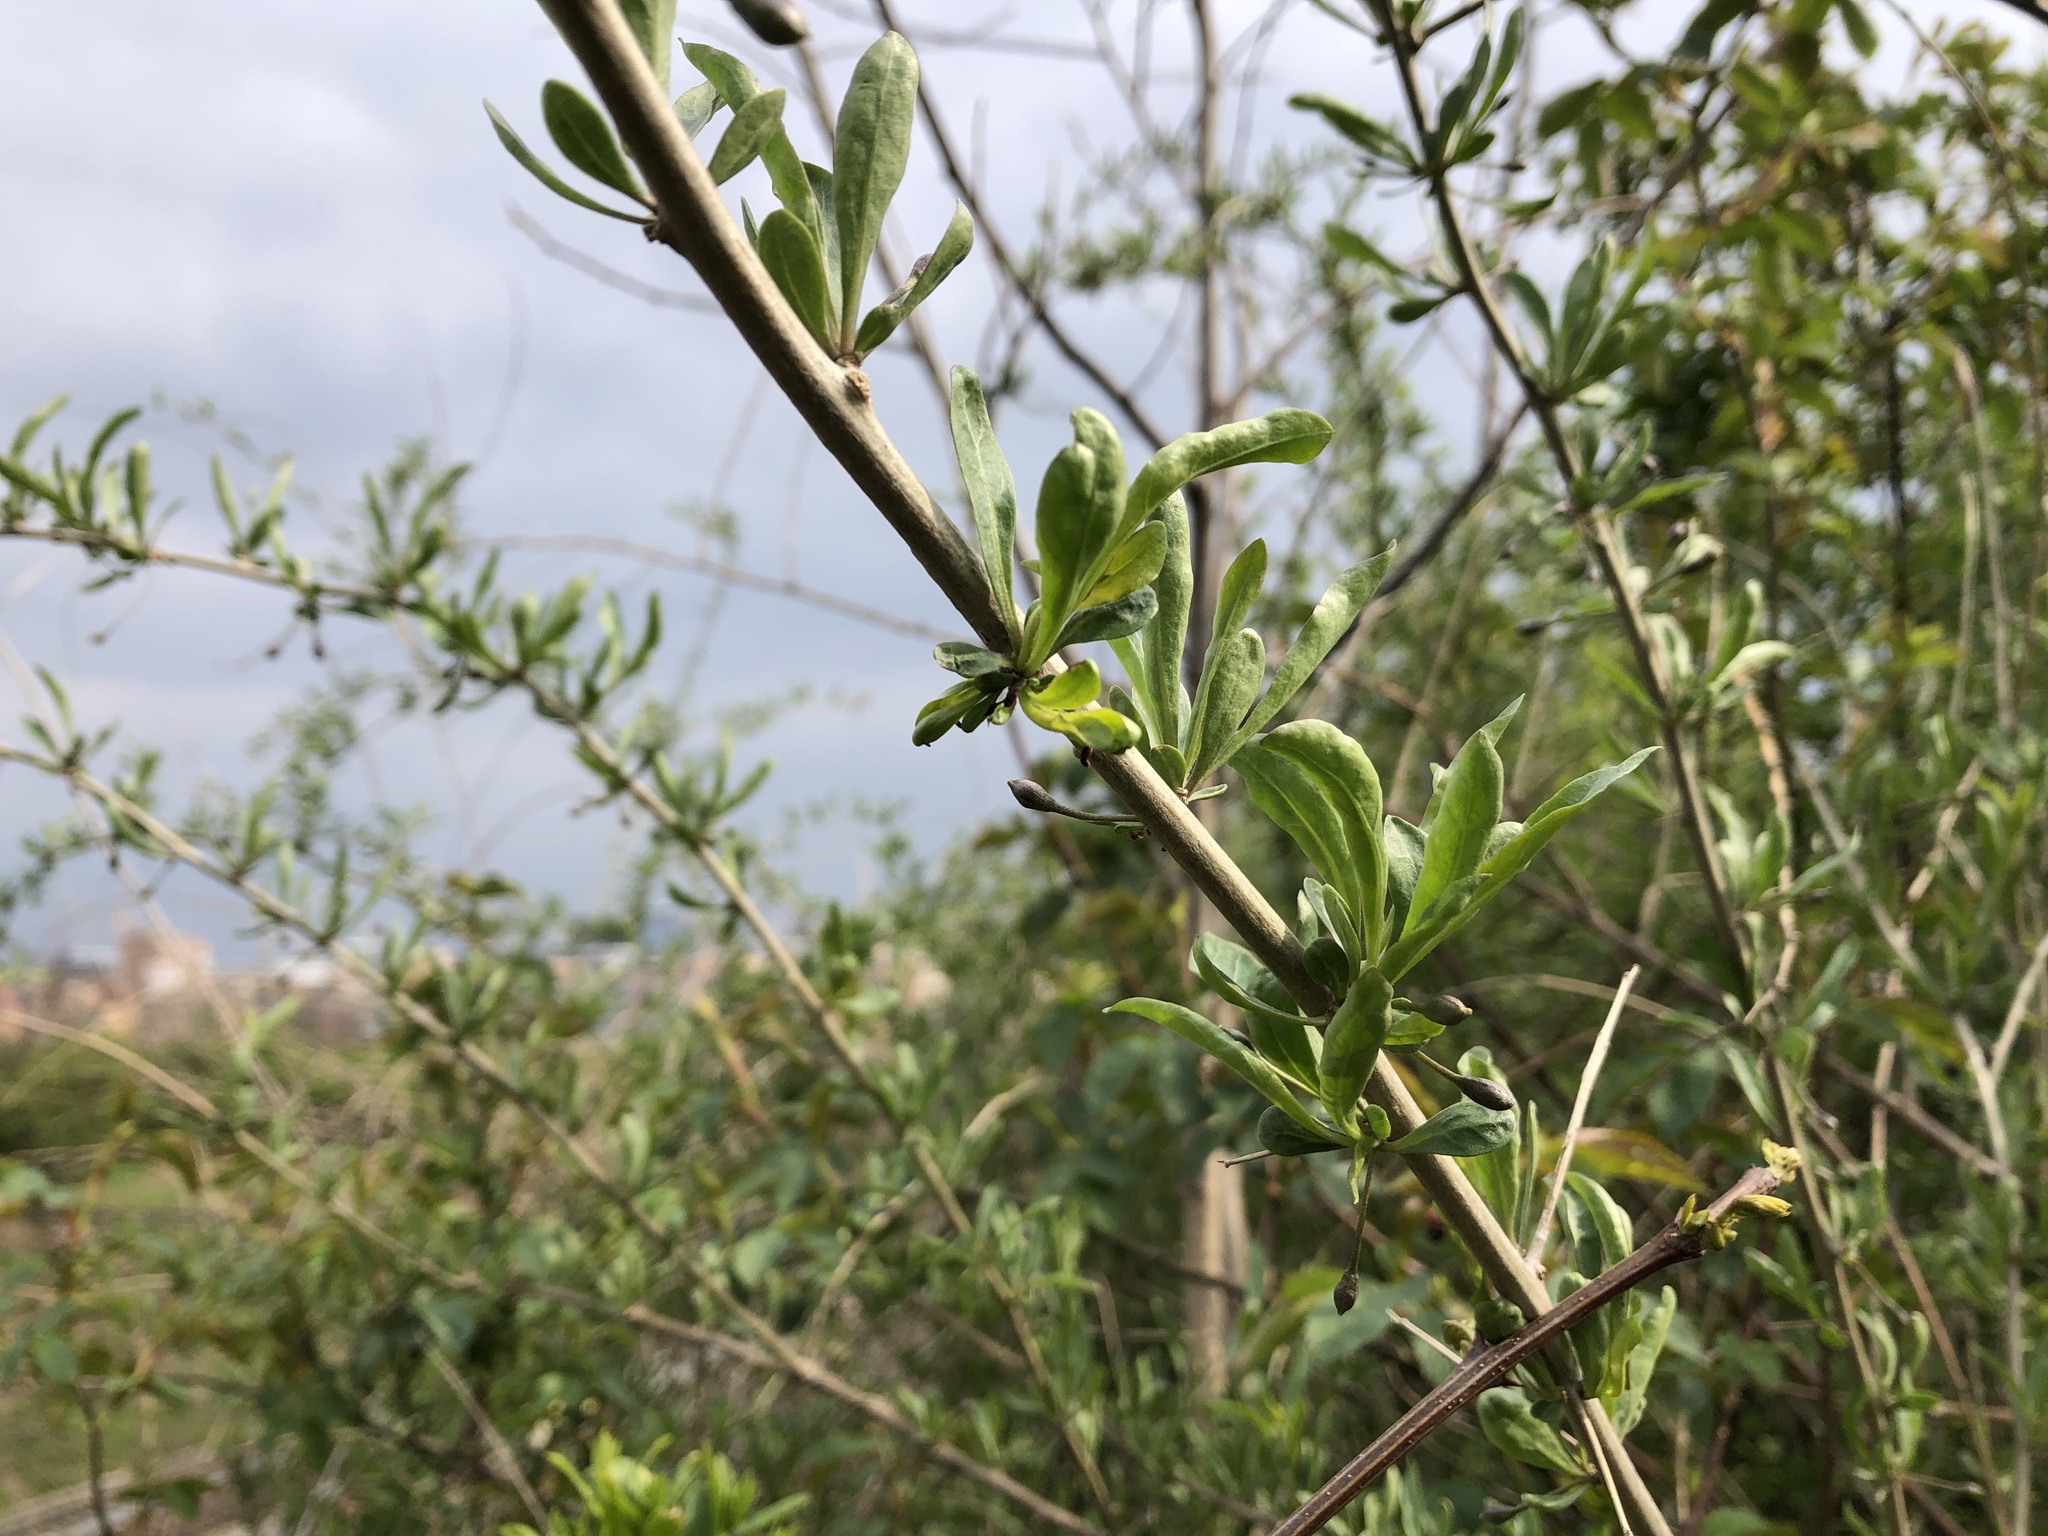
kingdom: Plantae
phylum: Tracheophyta
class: Magnoliopsida
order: Solanales
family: Solanaceae
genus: Lycium
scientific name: Lycium barbarum
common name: Duke of argyll's teaplant
